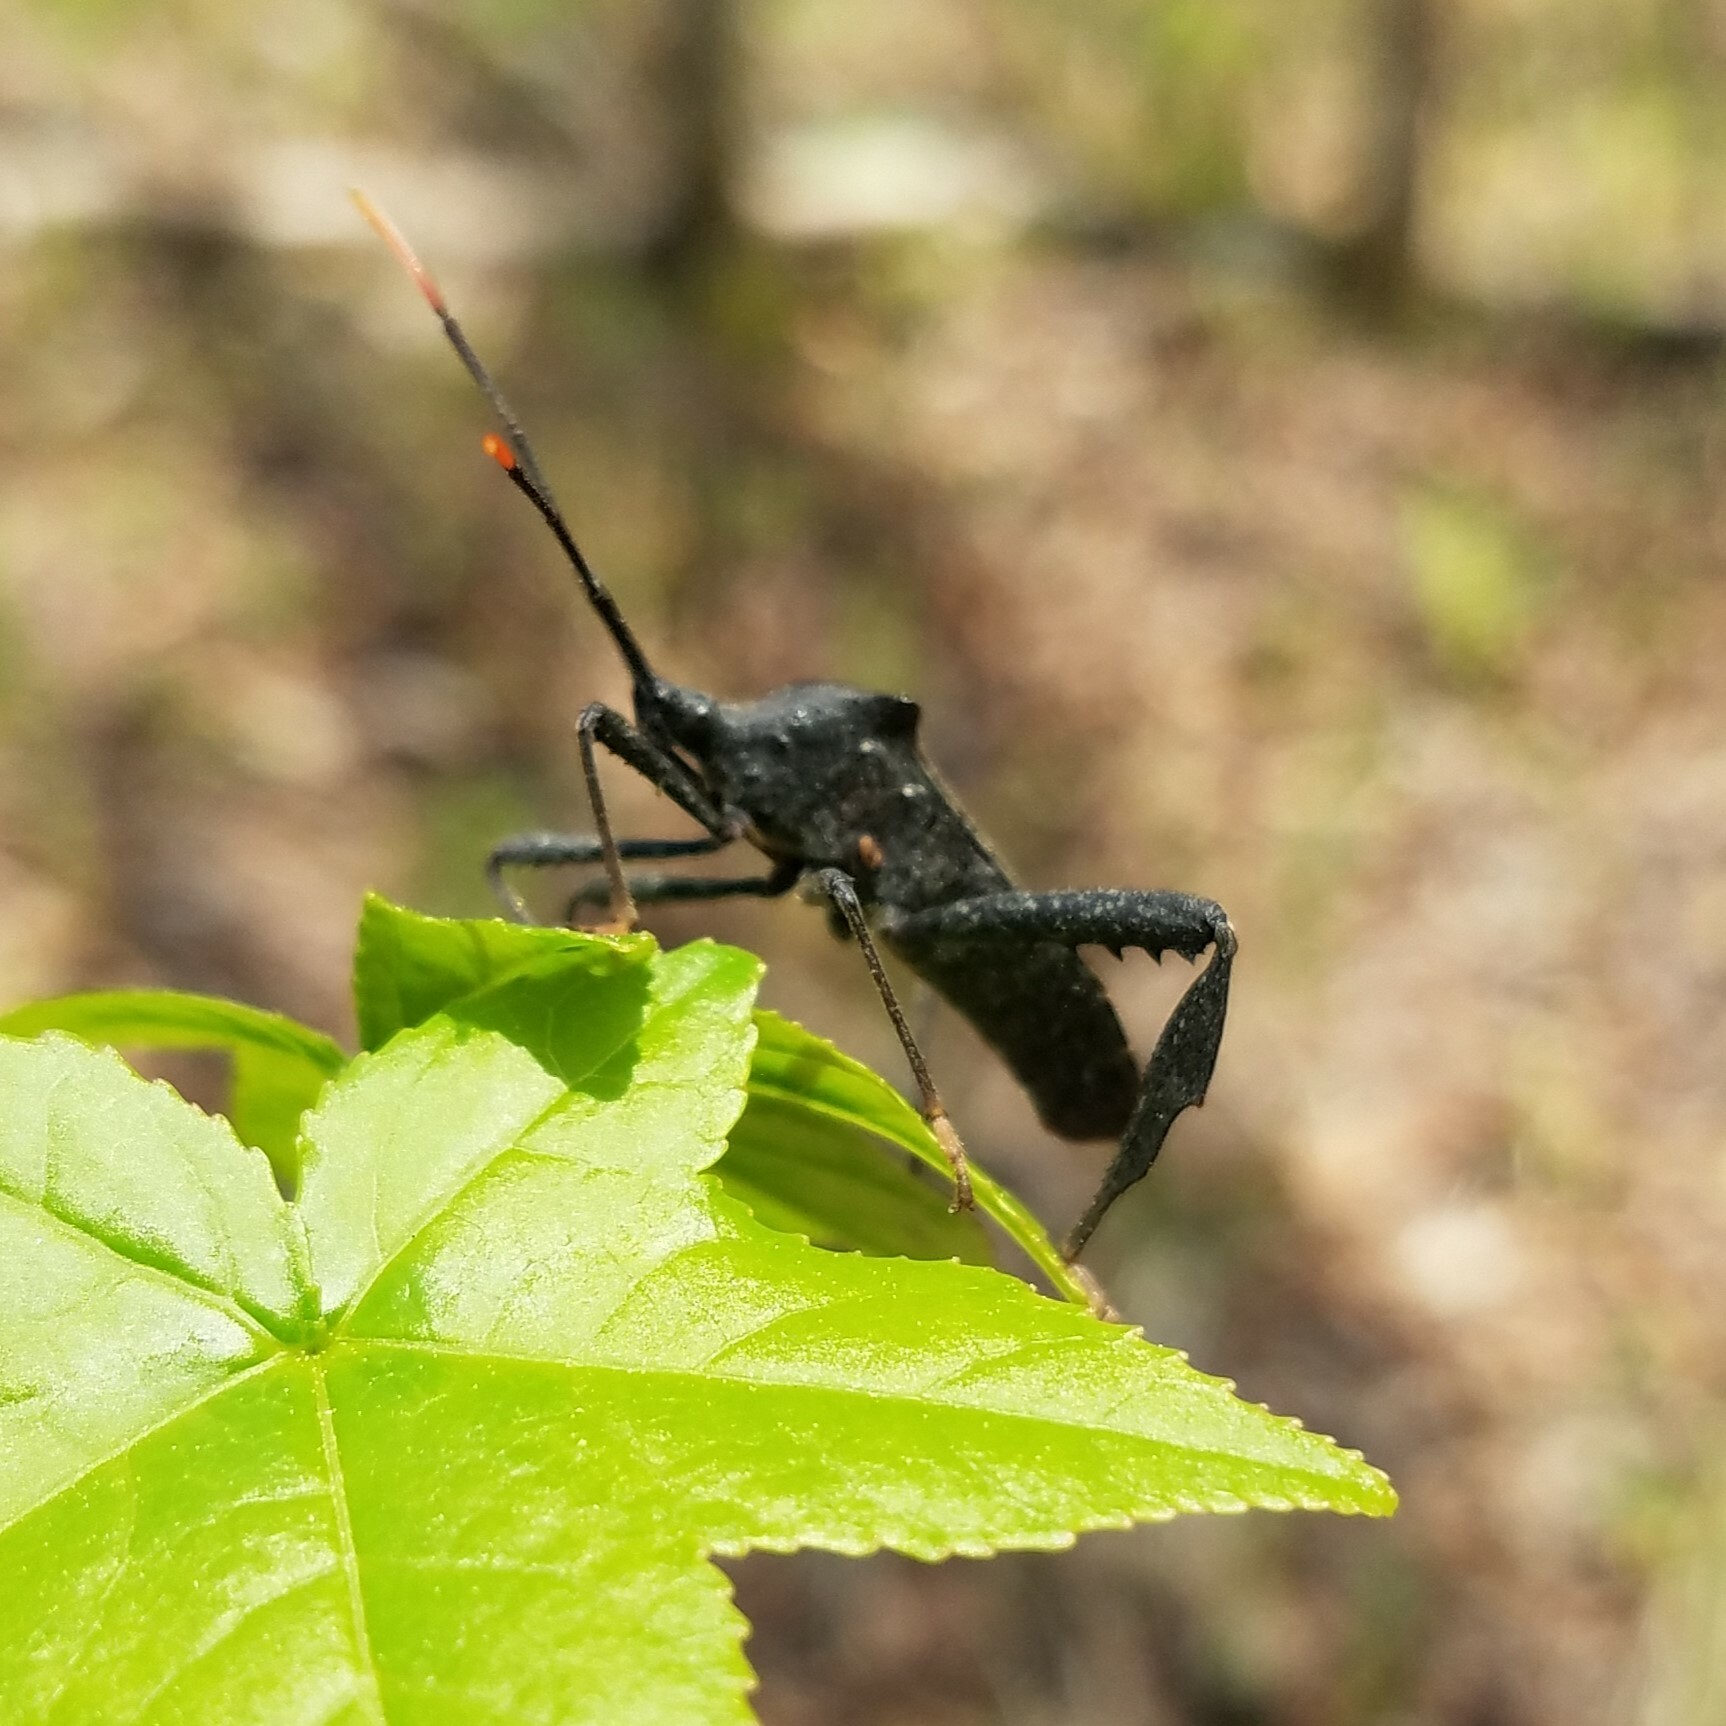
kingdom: Animalia
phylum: Arthropoda
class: Insecta
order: Hemiptera
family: Coreidae
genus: Acanthocephala
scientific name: Acanthocephala terminalis
